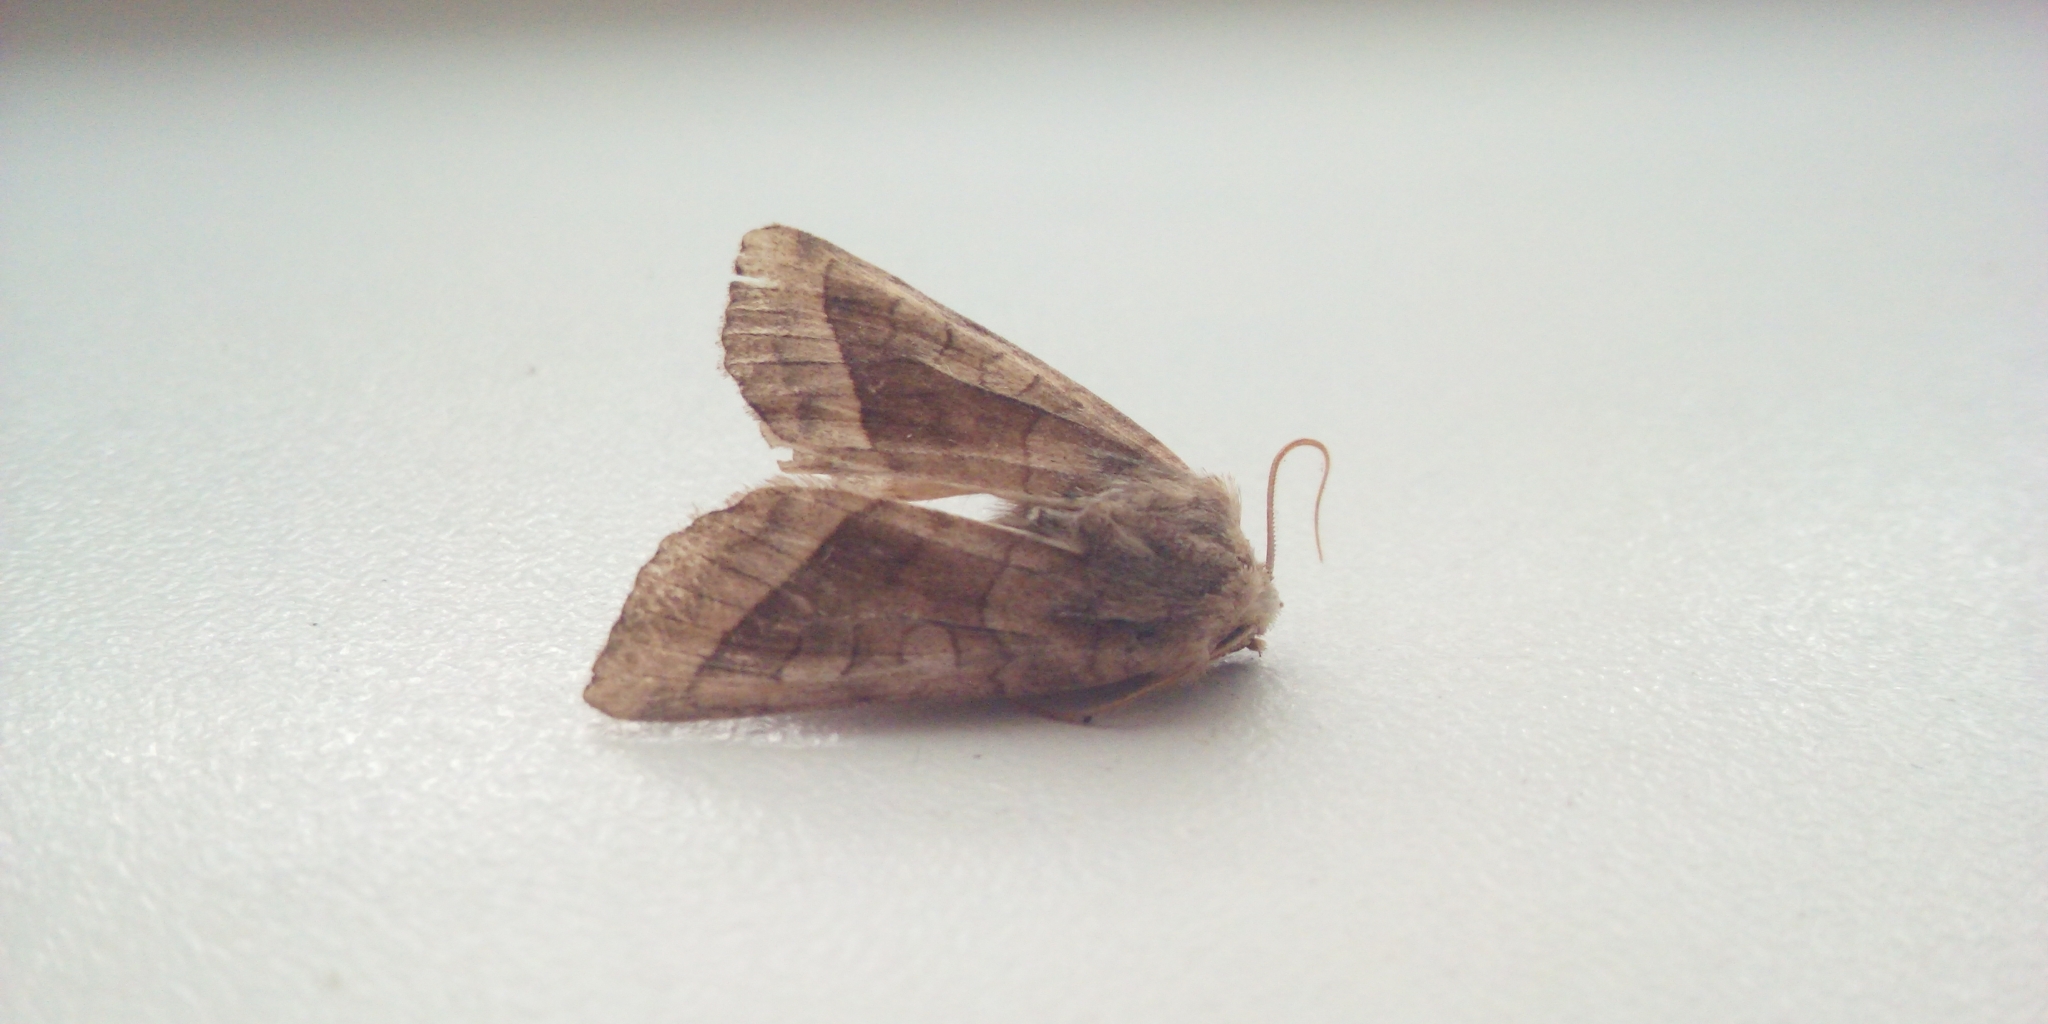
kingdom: Animalia
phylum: Arthropoda
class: Insecta
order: Lepidoptera
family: Noctuidae
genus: Hydraecia
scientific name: Hydraecia micacea
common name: Rosy rustic
